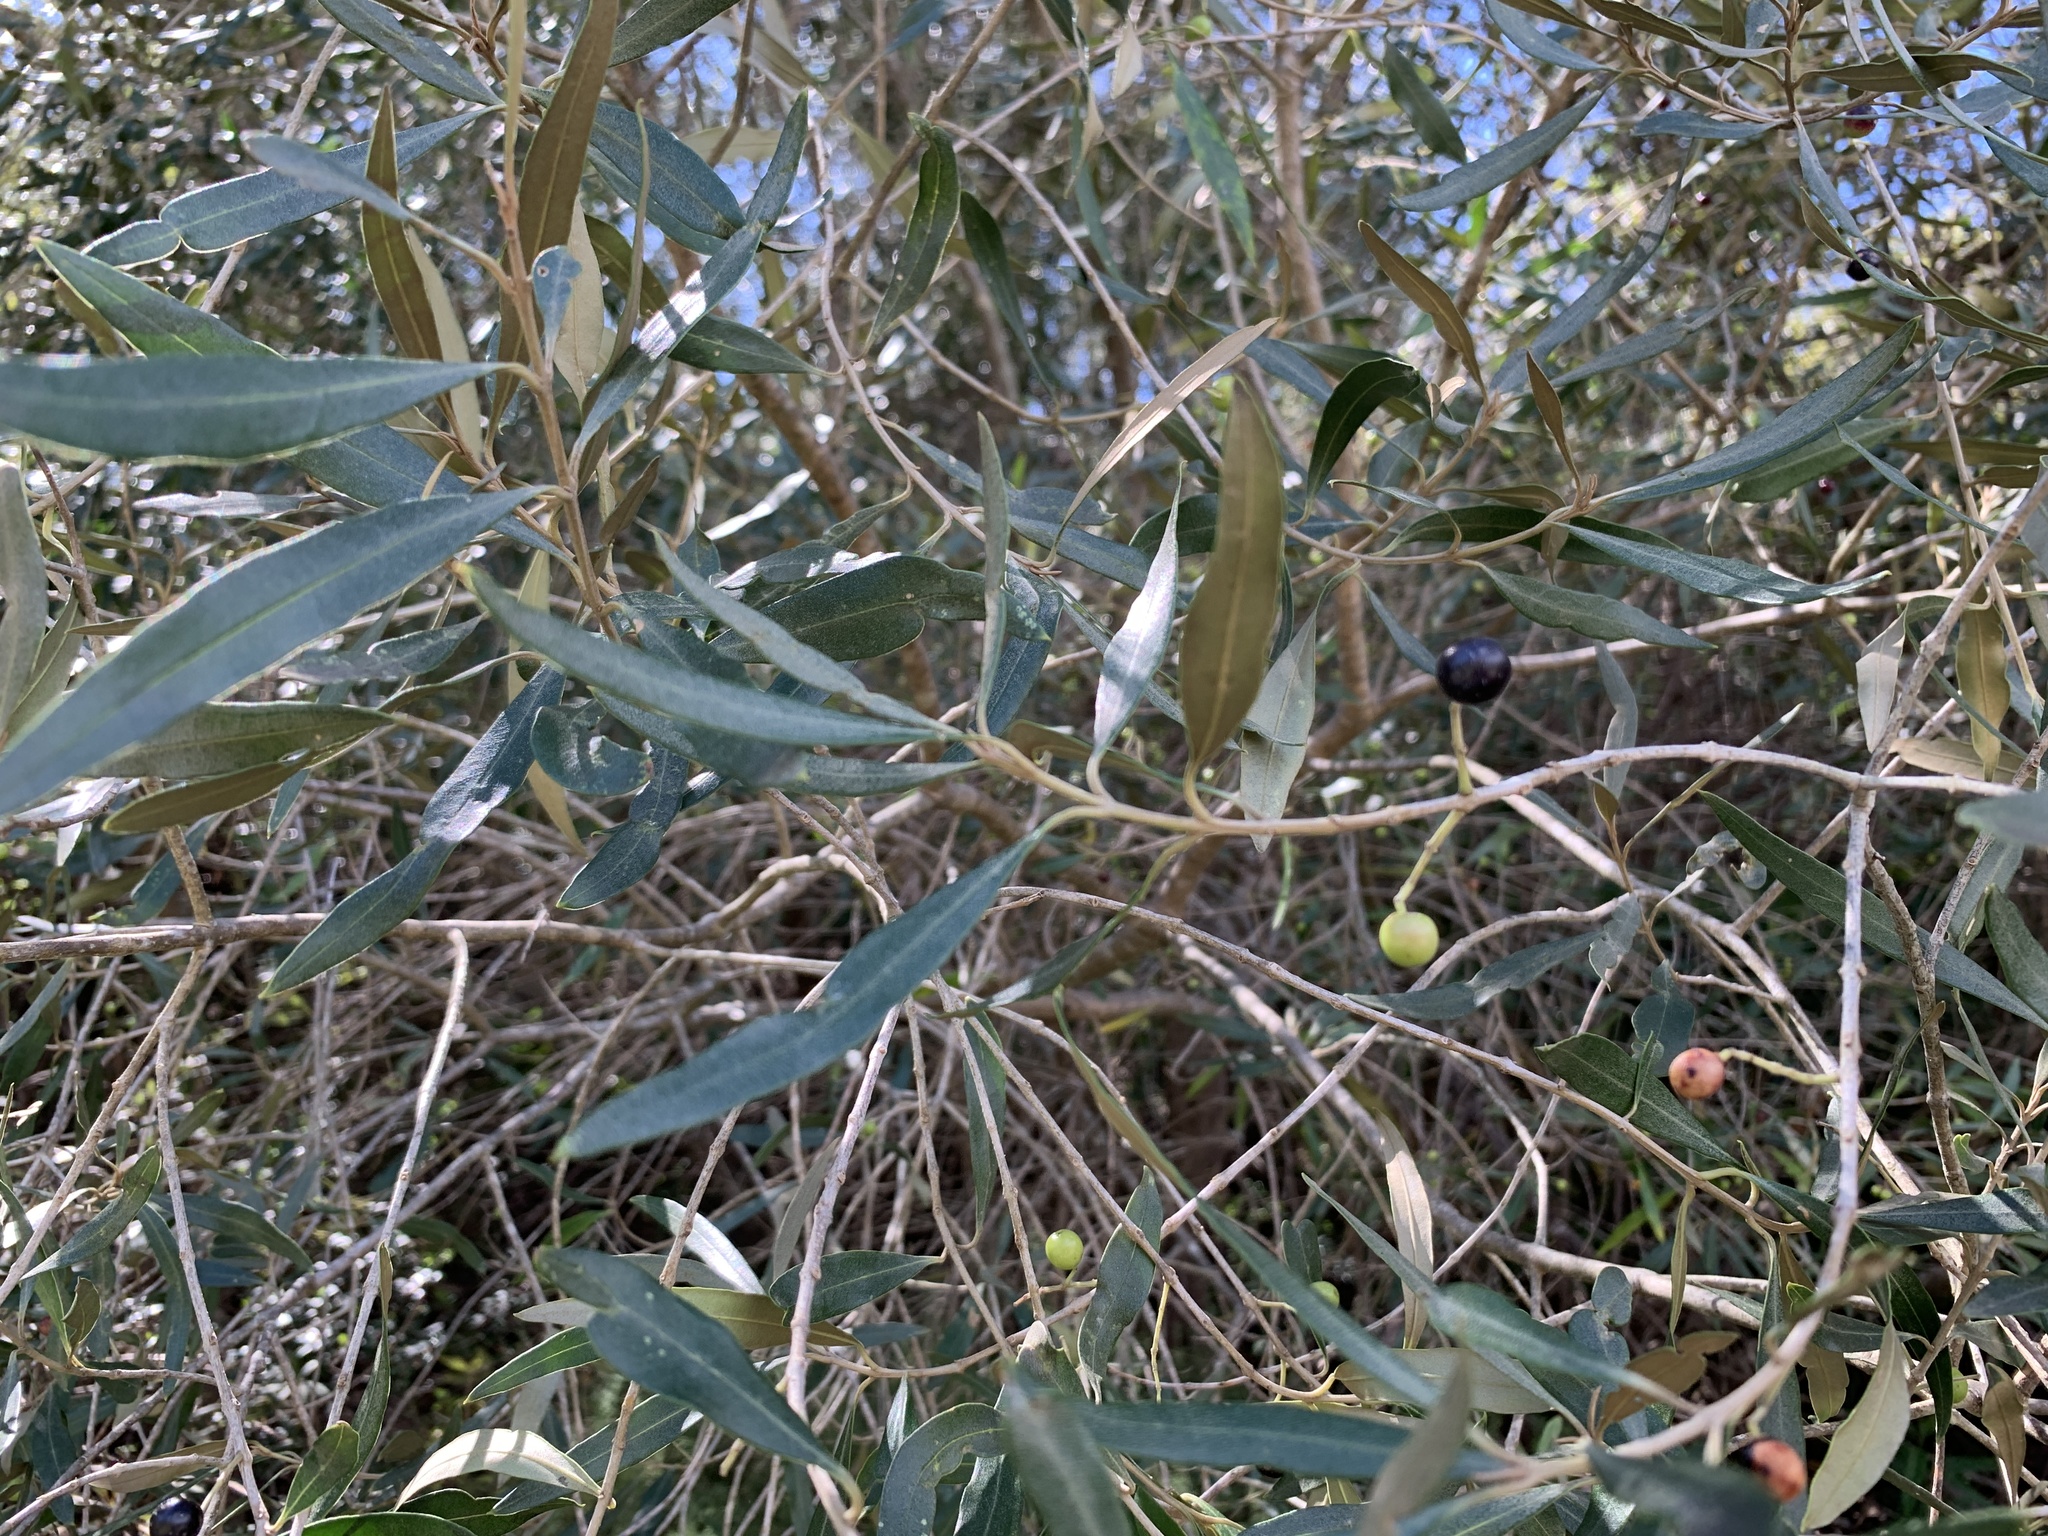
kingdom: Plantae
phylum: Tracheophyta
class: Magnoliopsida
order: Lamiales
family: Oleaceae
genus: Olea
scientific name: Olea europaea
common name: Olive
